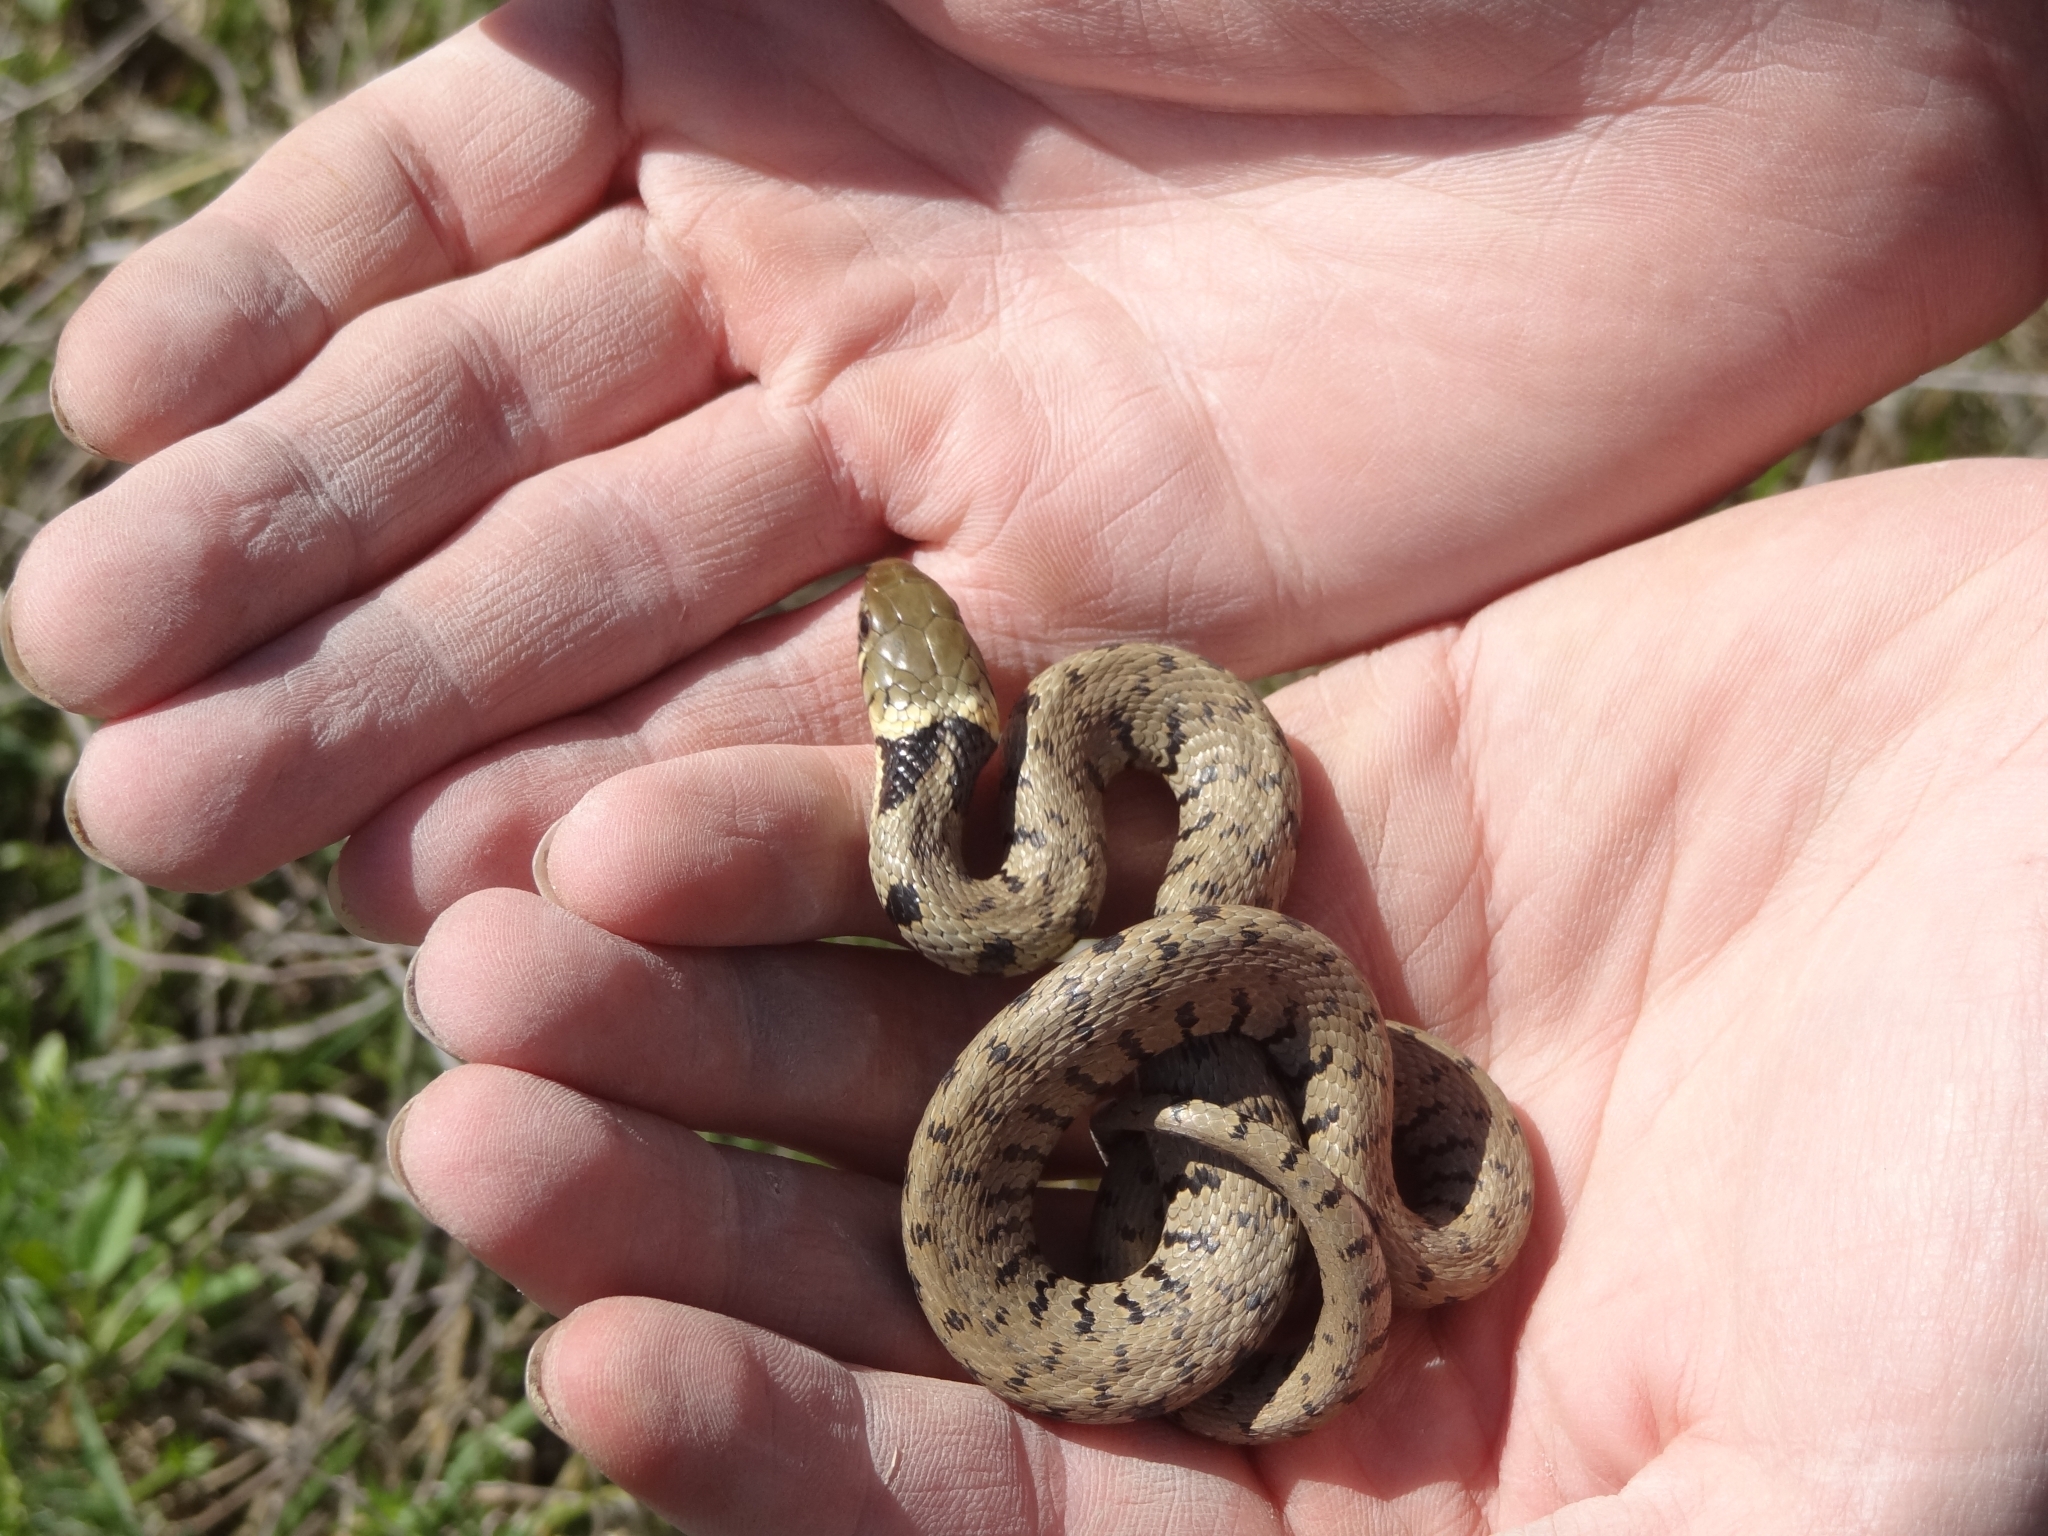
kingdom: Animalia
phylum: Chordata
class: Squamata
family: Colubridae
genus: Natrix
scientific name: Natrix helvetica
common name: Banded grass snake
